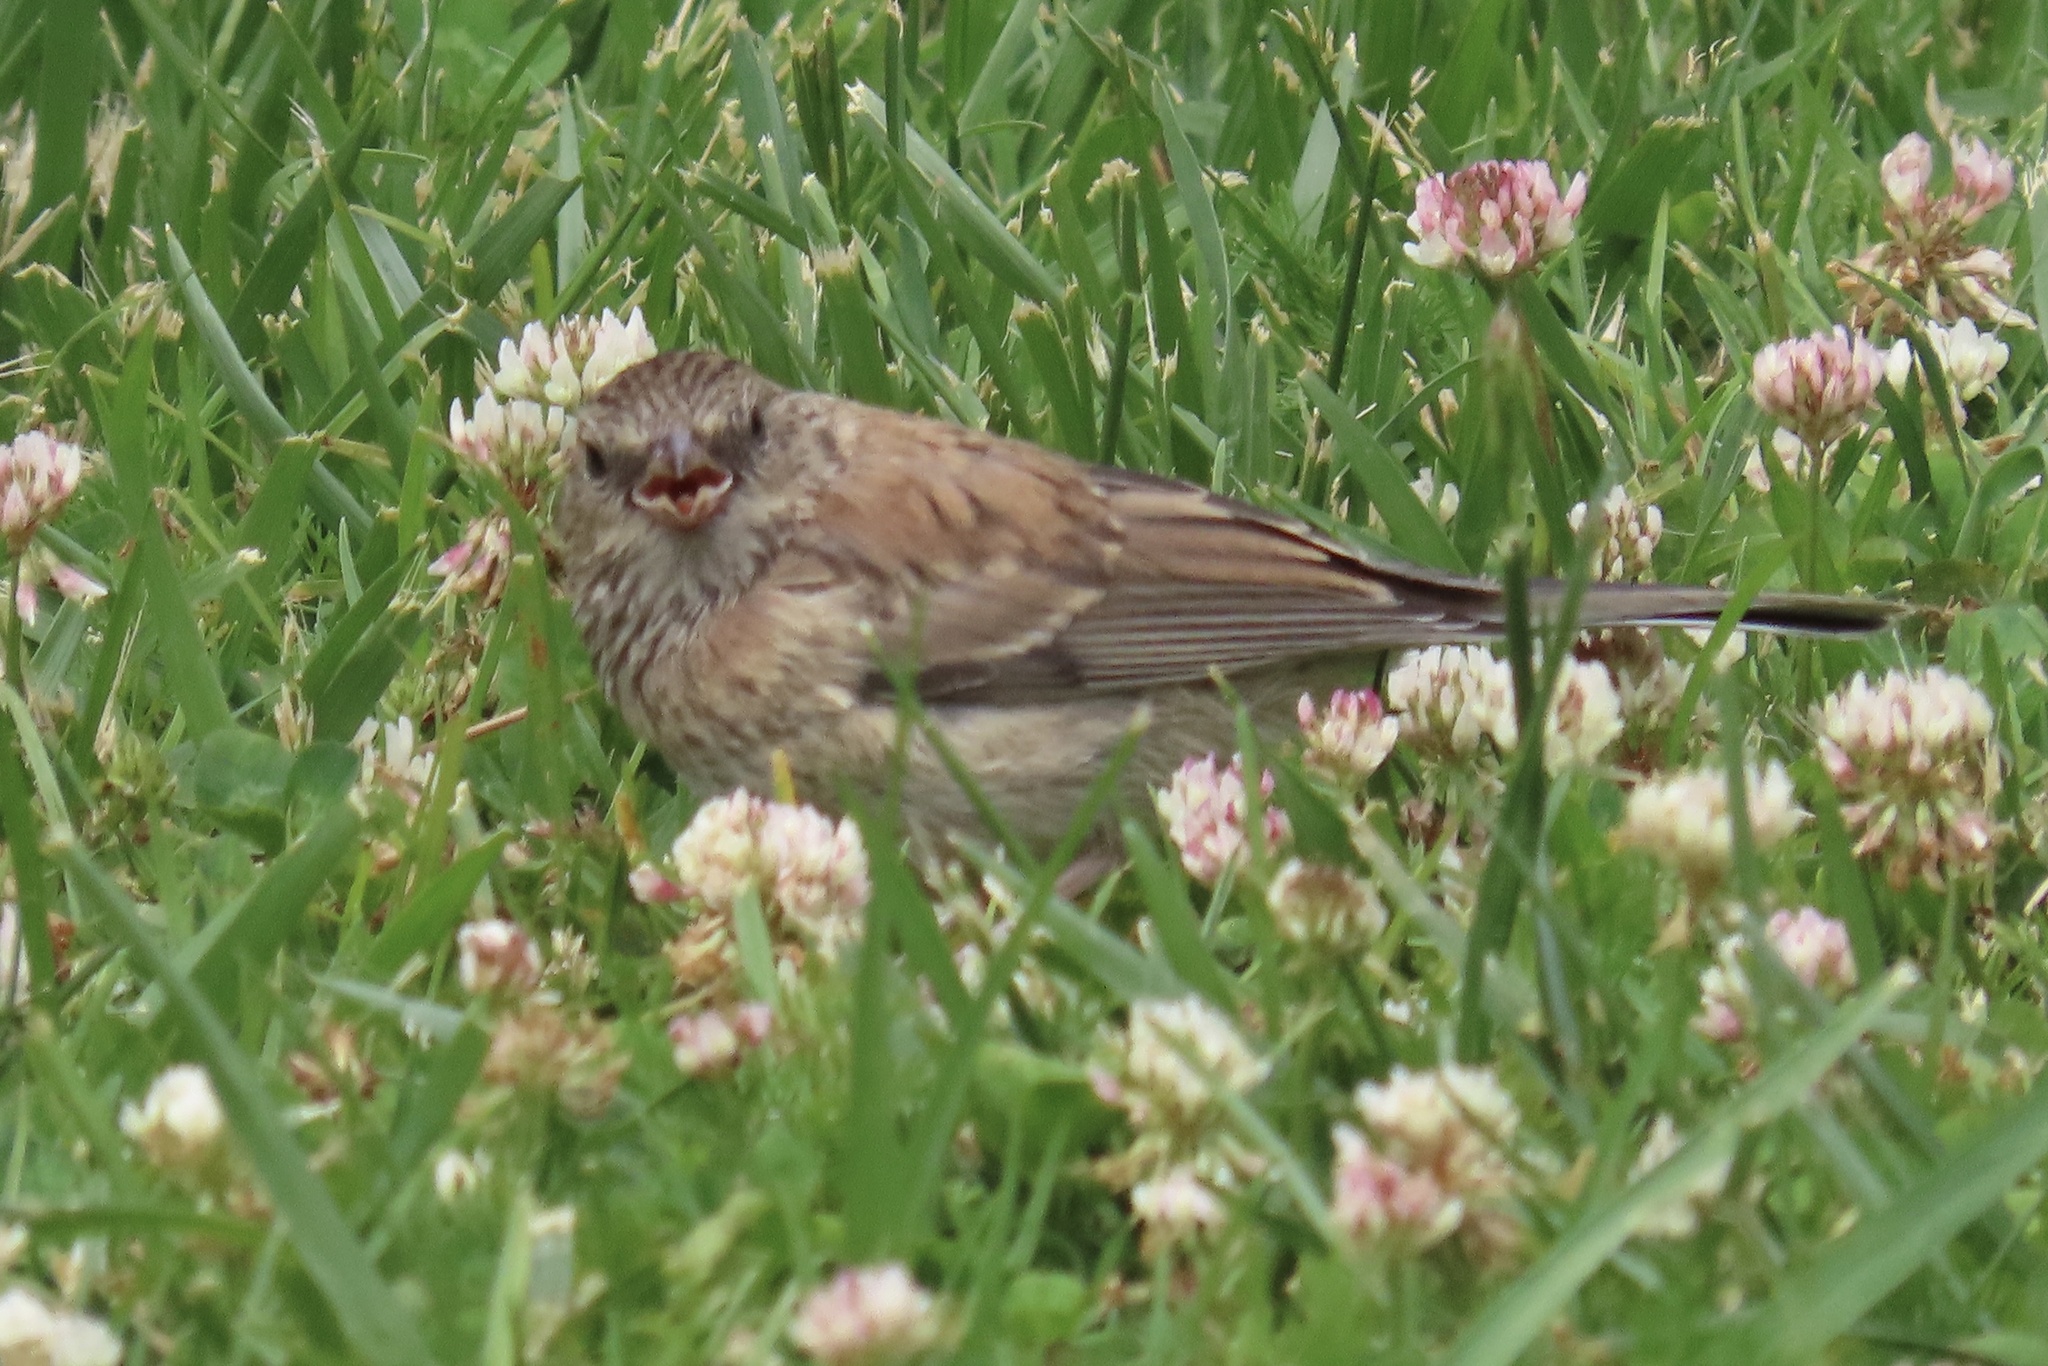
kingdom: Animalia
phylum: Chordata
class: Aves
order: Passeriformes
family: Passerellidae
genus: Junco
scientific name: Junco hyemalis
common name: Dark-eyed junco
